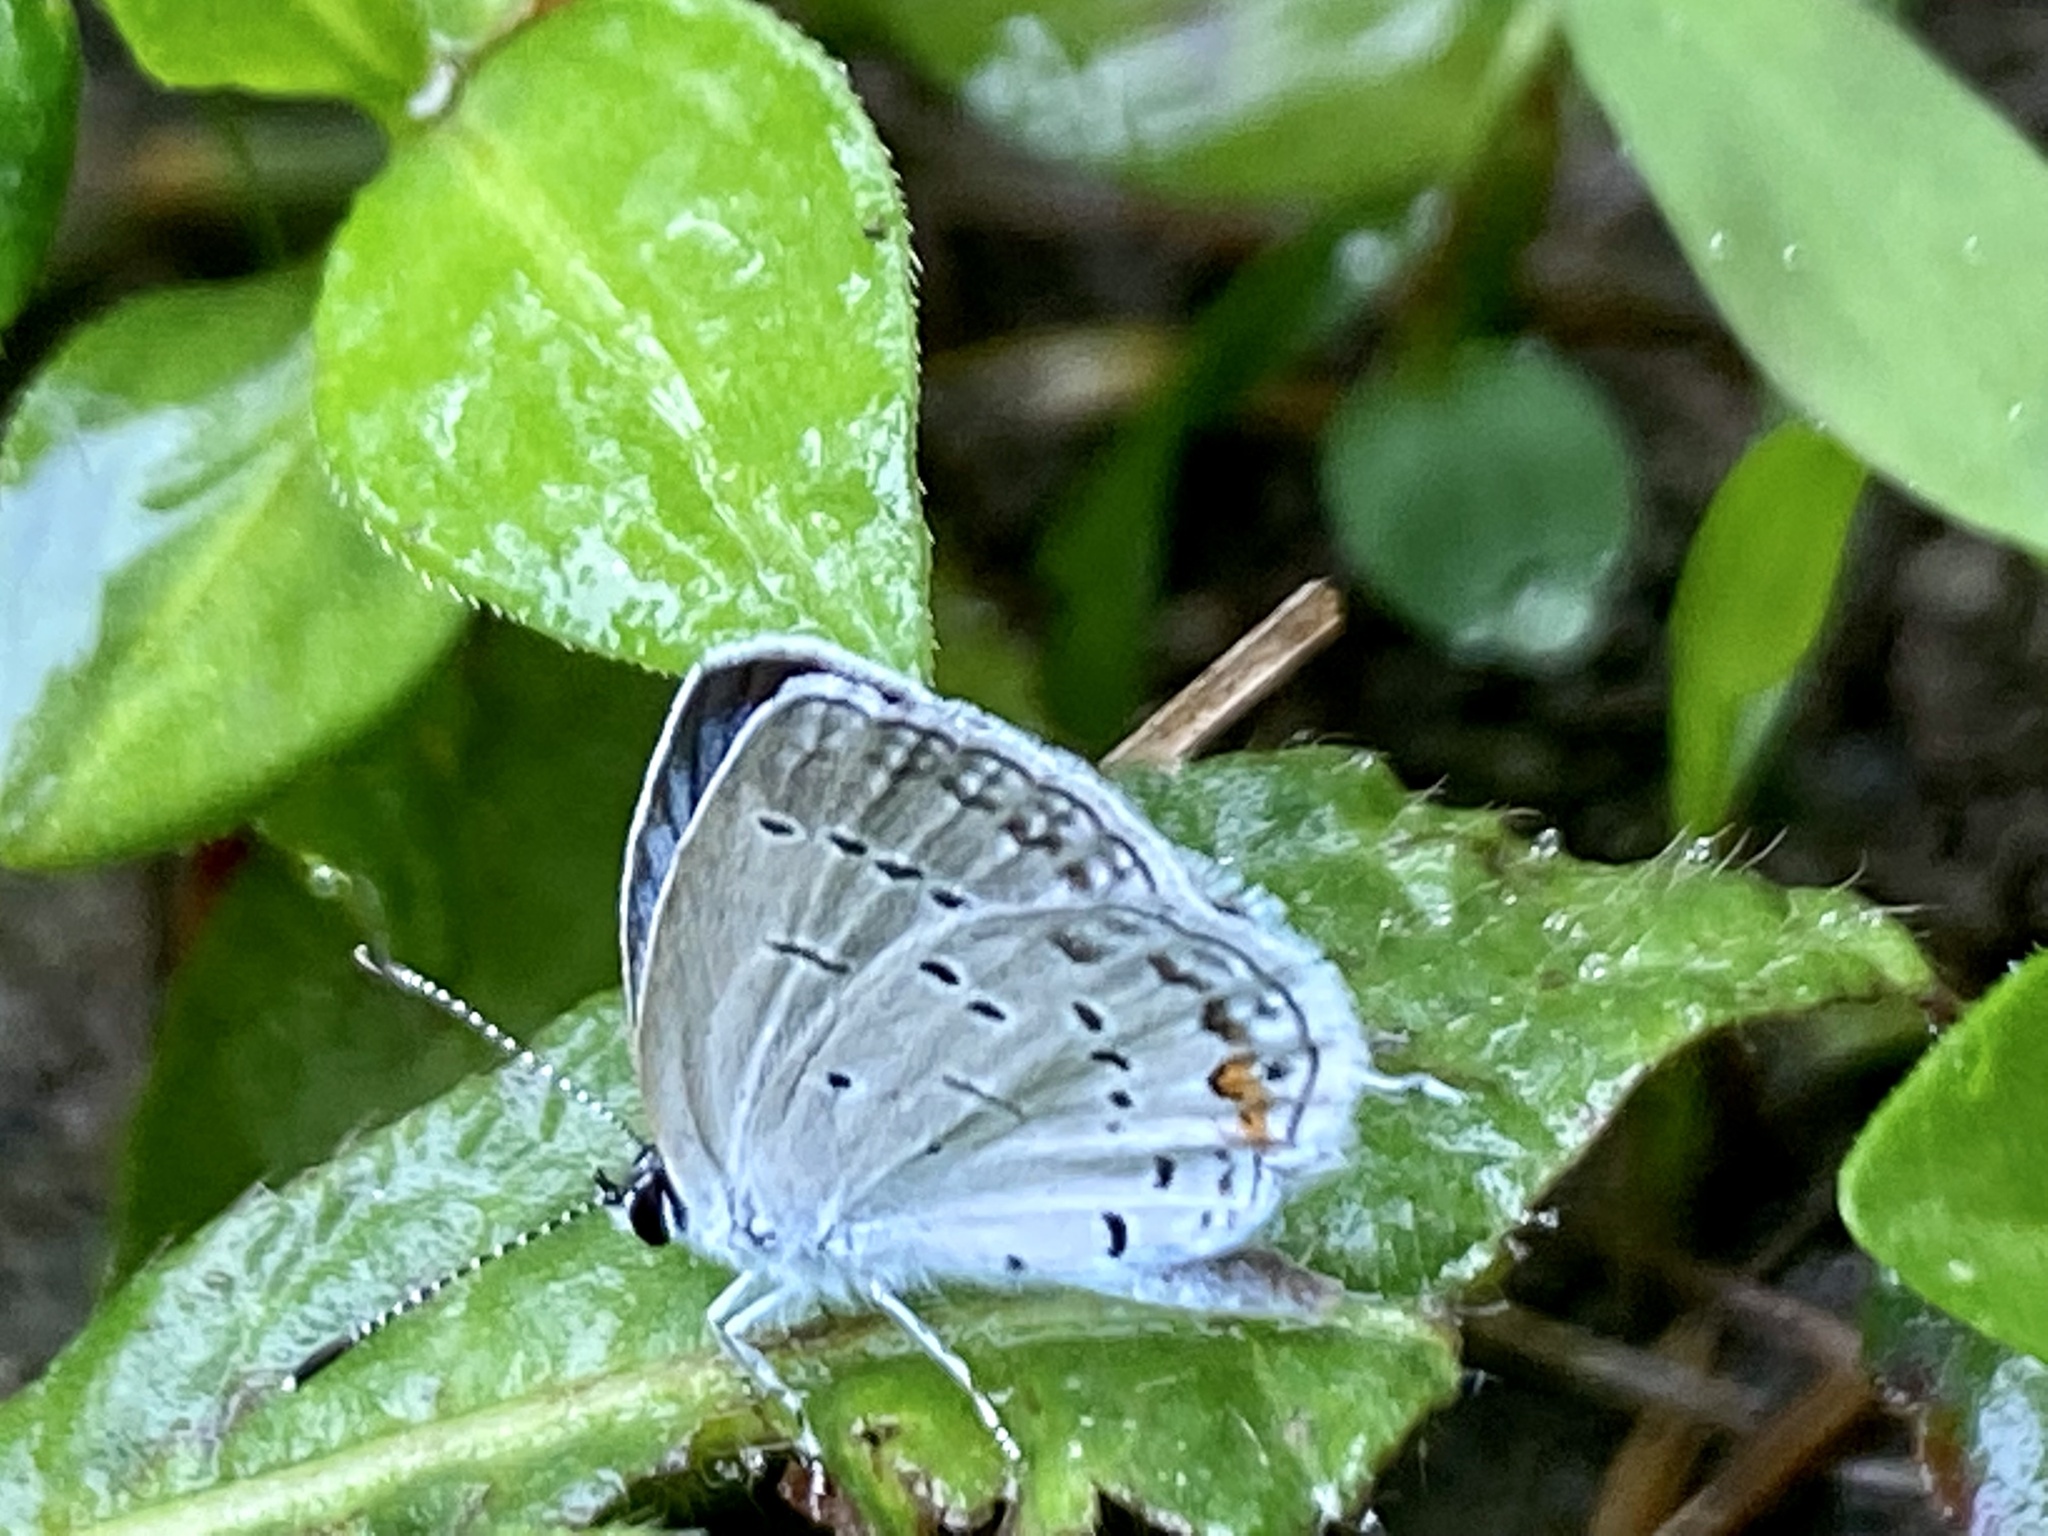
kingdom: Animalia
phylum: Arthropoda
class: Insecta
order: Lepidoptera
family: Lycaenidae
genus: Elkalyce
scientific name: Elkalyce comyntas
